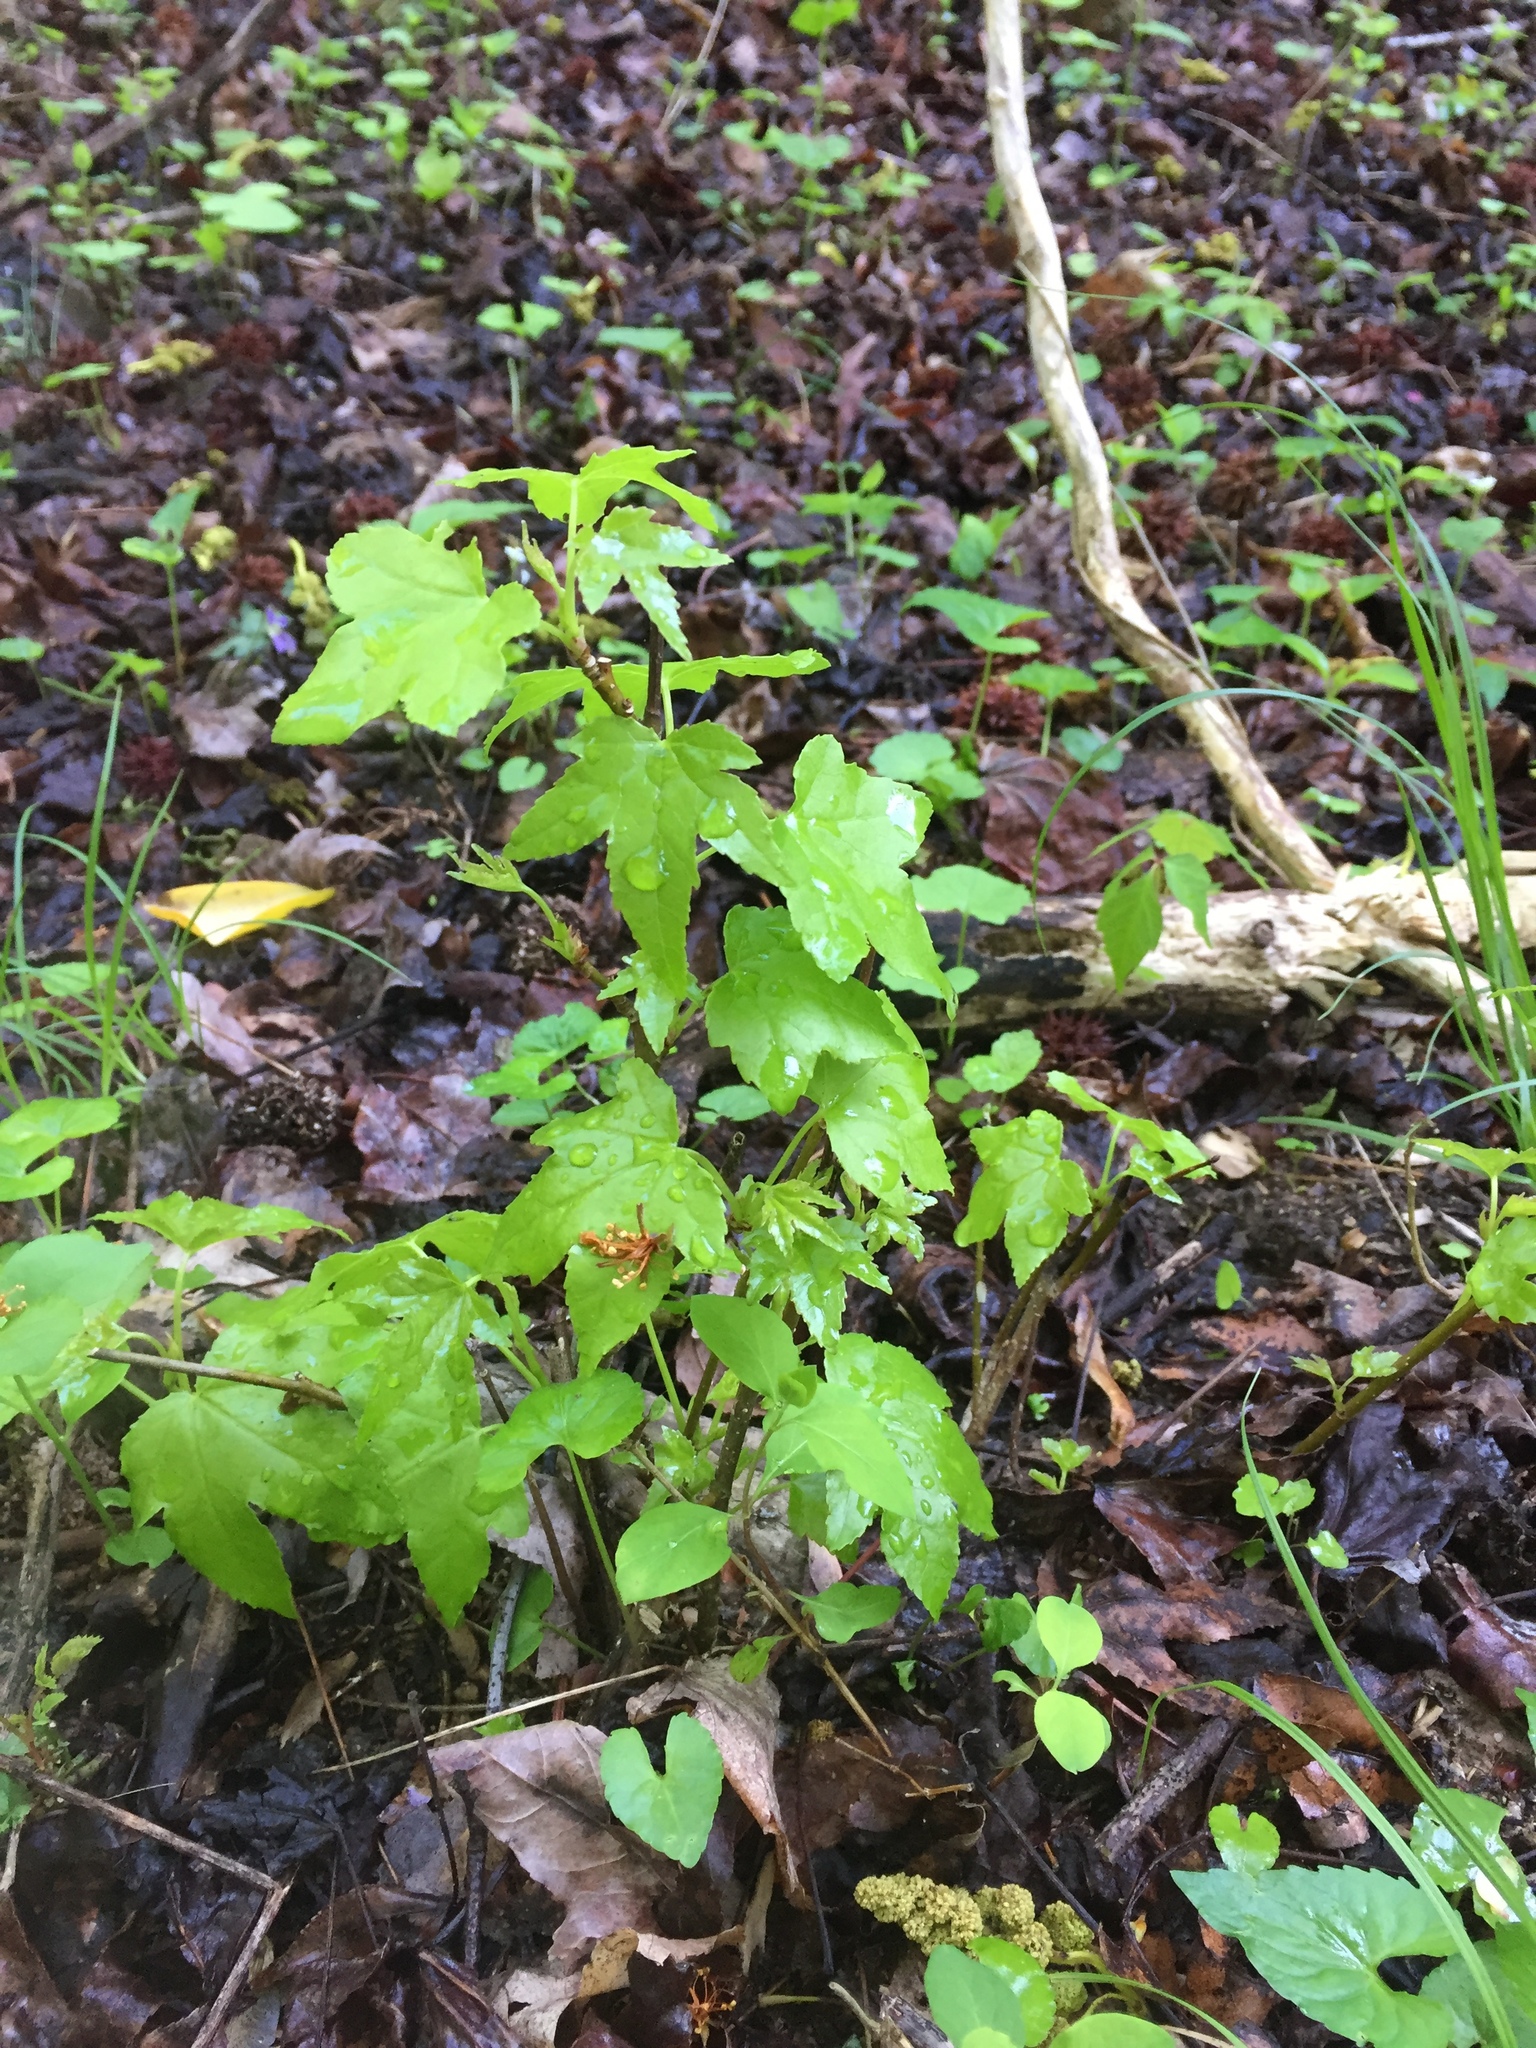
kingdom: Plantae
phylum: Tracheophyta
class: Magnoliopsida
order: Saxifragales
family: Altingiaceae
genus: Liquidambar
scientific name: Liquidambar styraciflua
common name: Sweet gum
